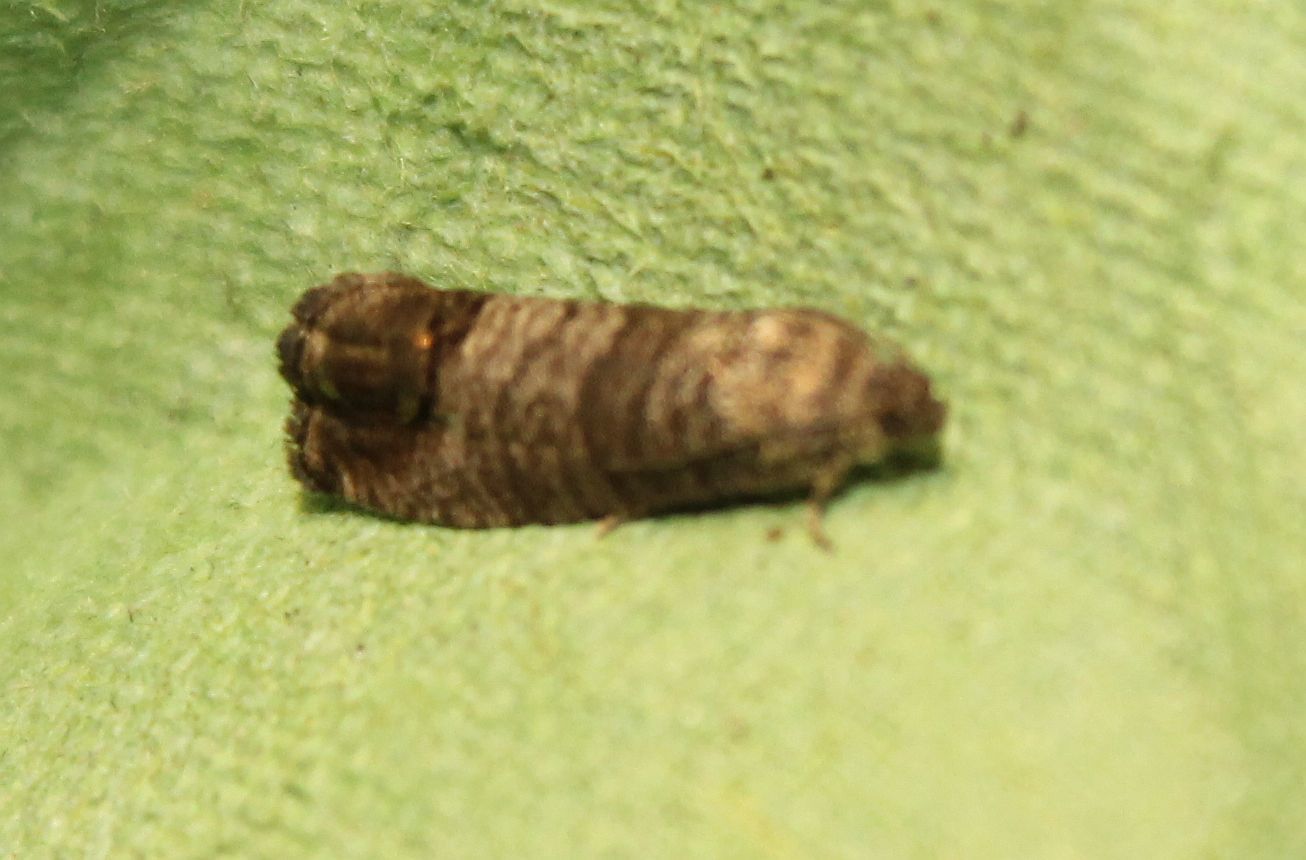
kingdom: Animalia
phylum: Arthropoda
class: Insecta
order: Lepidoptera
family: Tortricidae
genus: Cydia
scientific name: Cydia pomonella
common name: Codling moth
